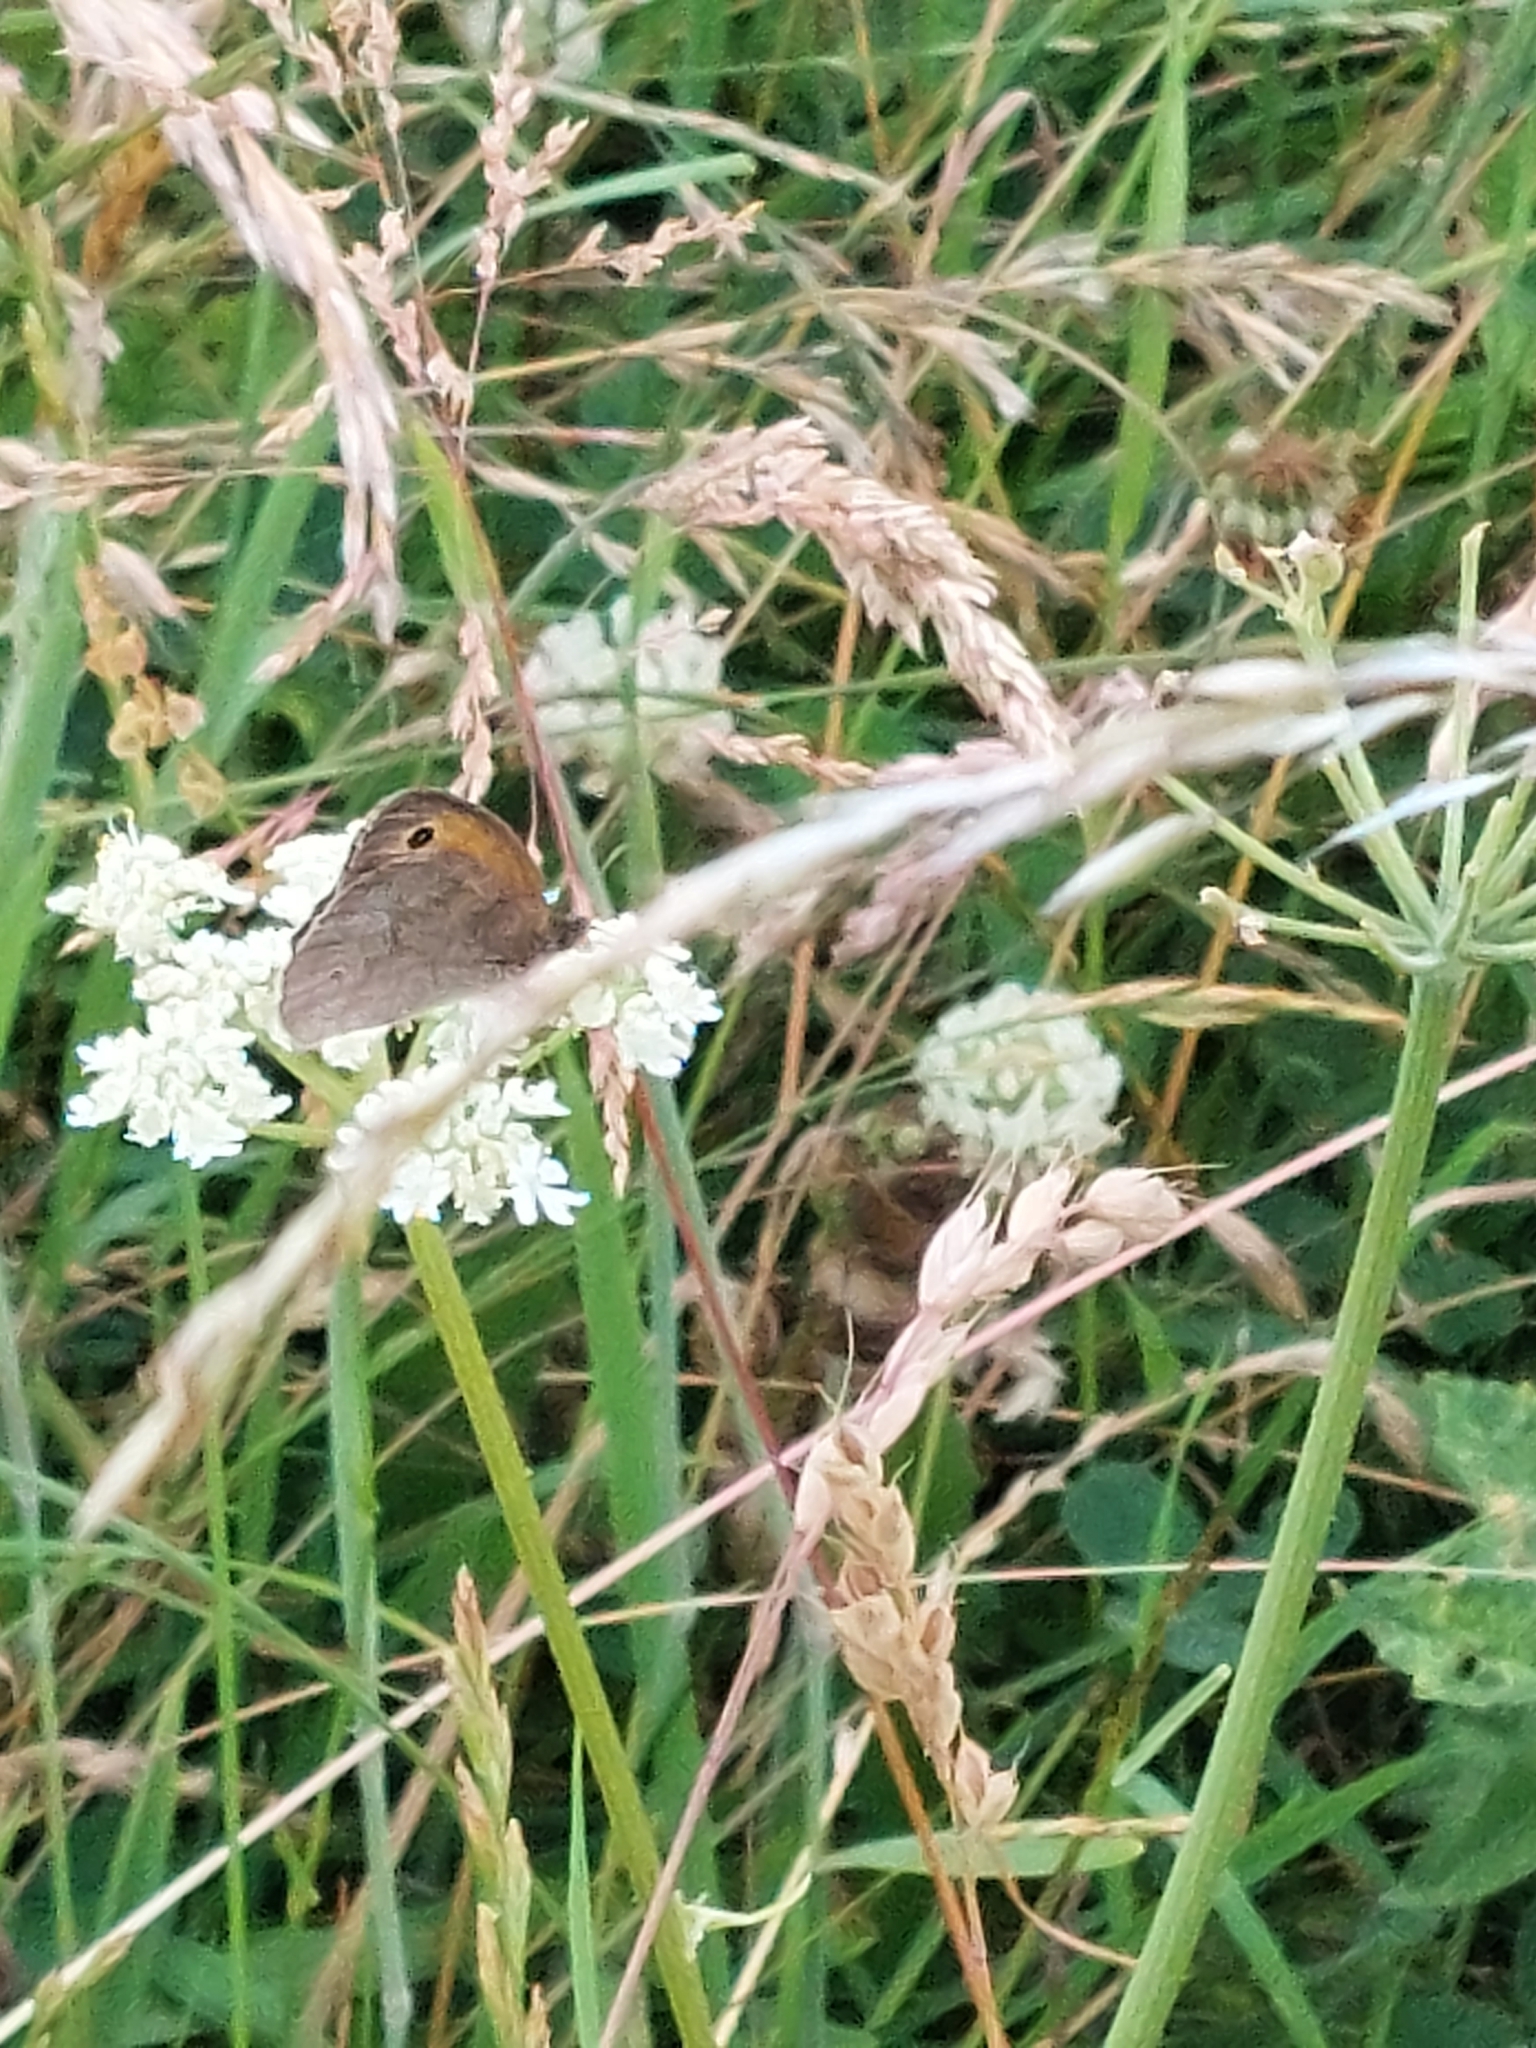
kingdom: Animalia
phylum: Arthropoda
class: Insecta
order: Lepidoptera
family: Nymphalidae
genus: Maniola
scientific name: Maniola jurtina
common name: Meadow brown
